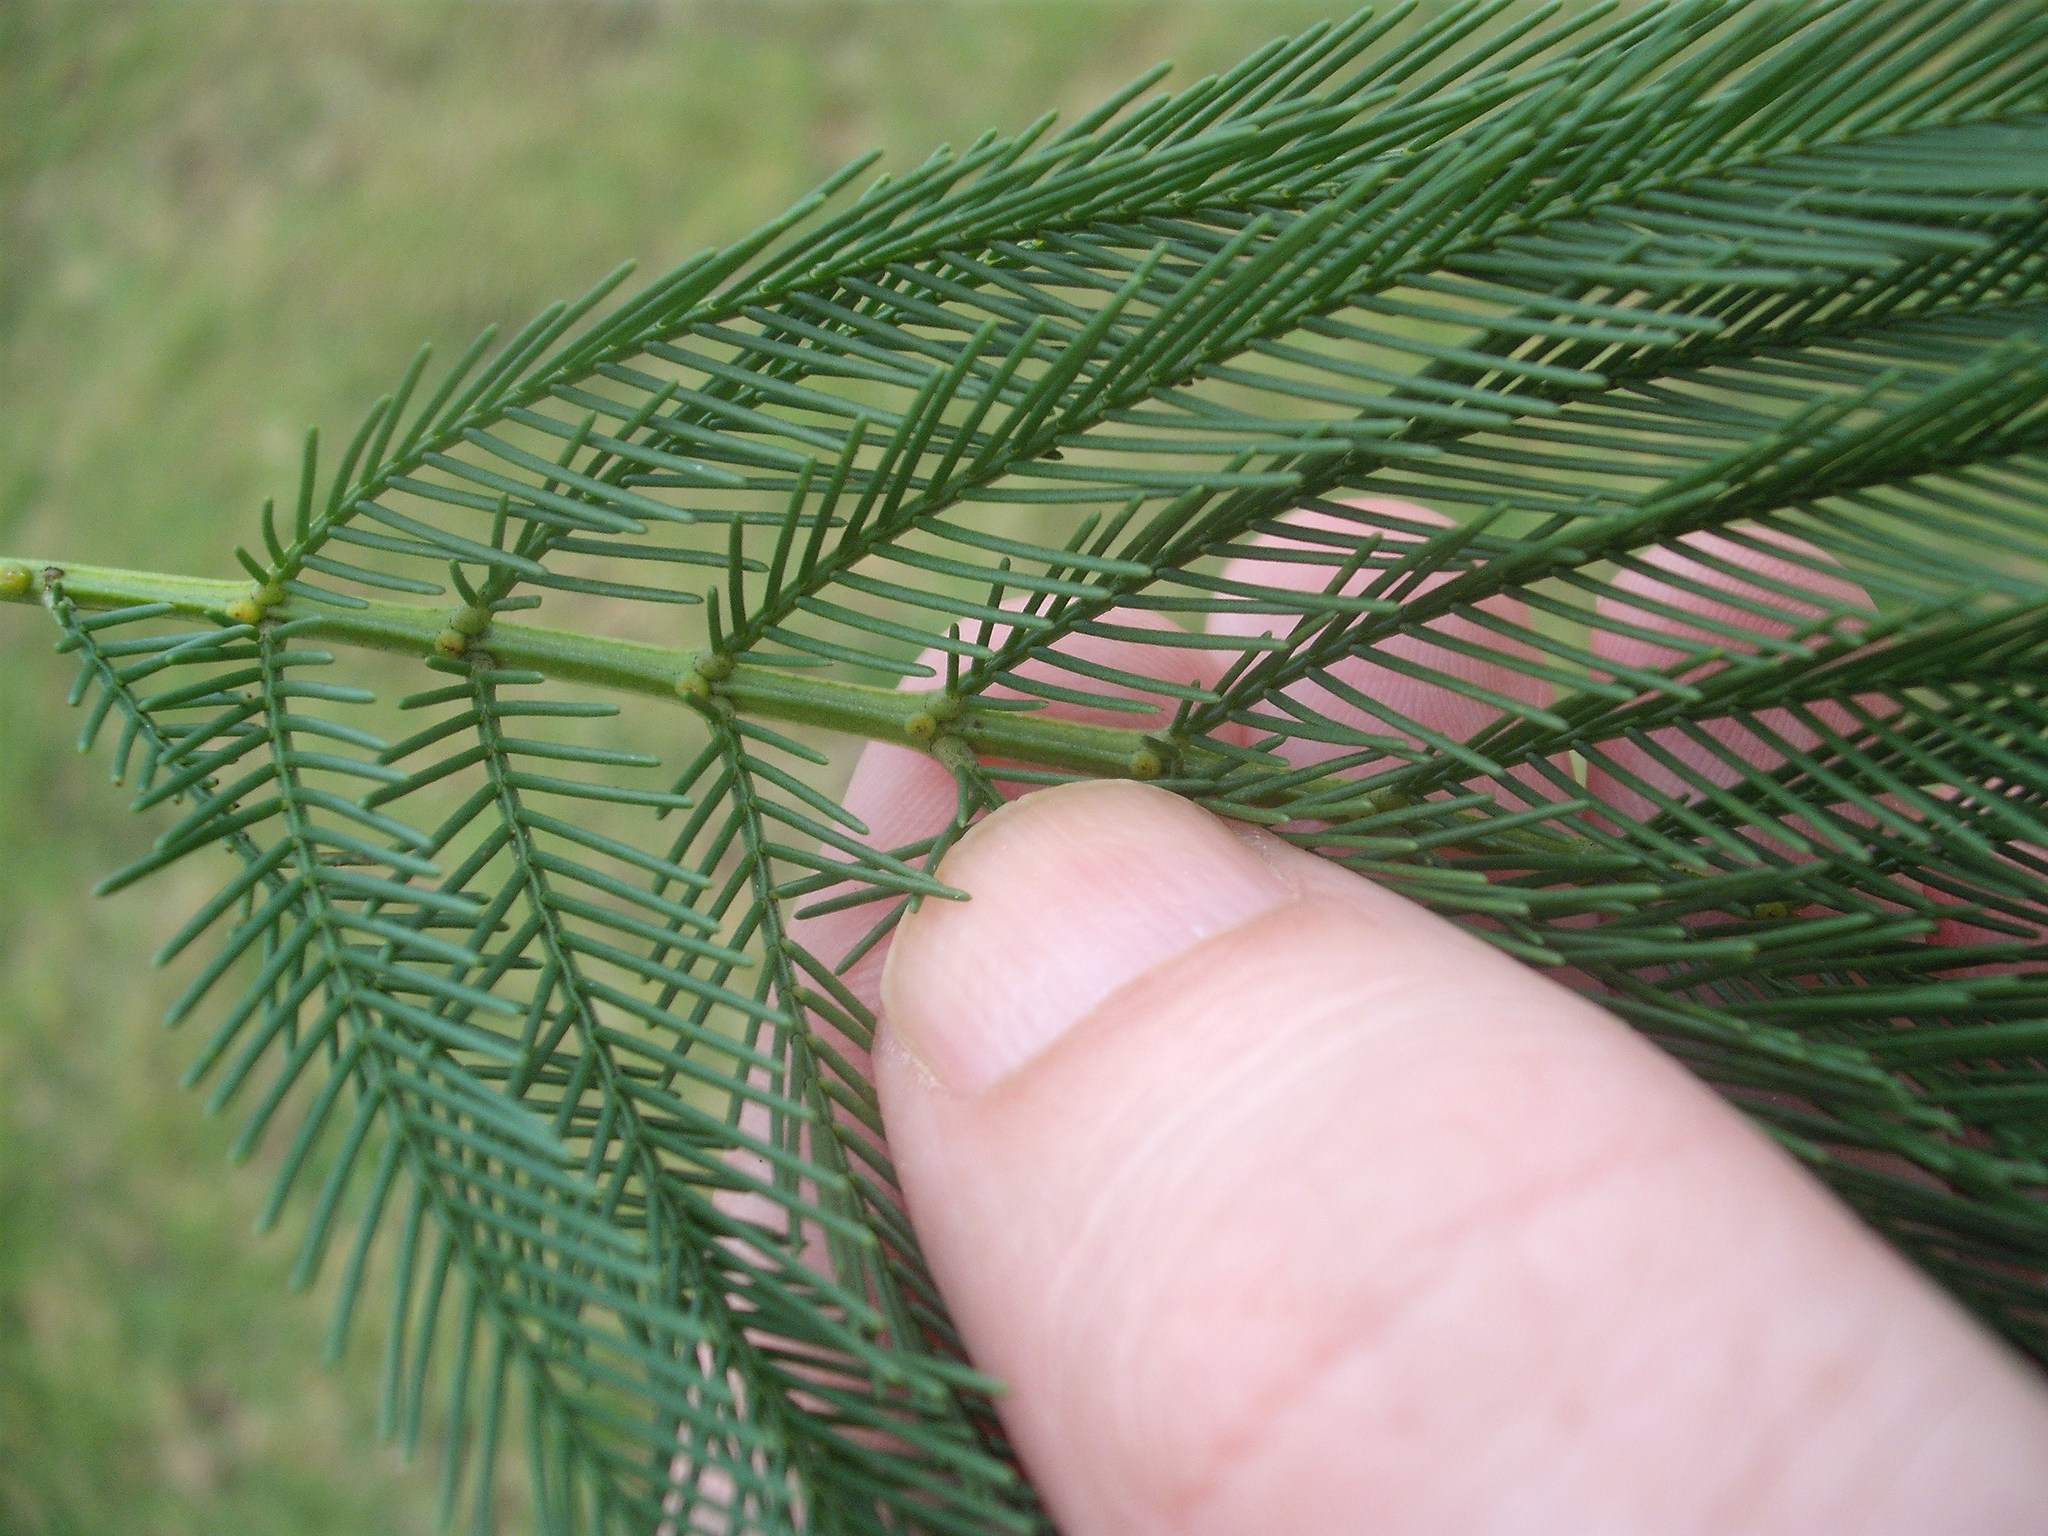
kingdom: Plantae
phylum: Tracheophyta
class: Magnoliopsida
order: Fabales
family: Fabaceae
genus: Acacia
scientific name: Acacia decurrens
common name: Green wattle
